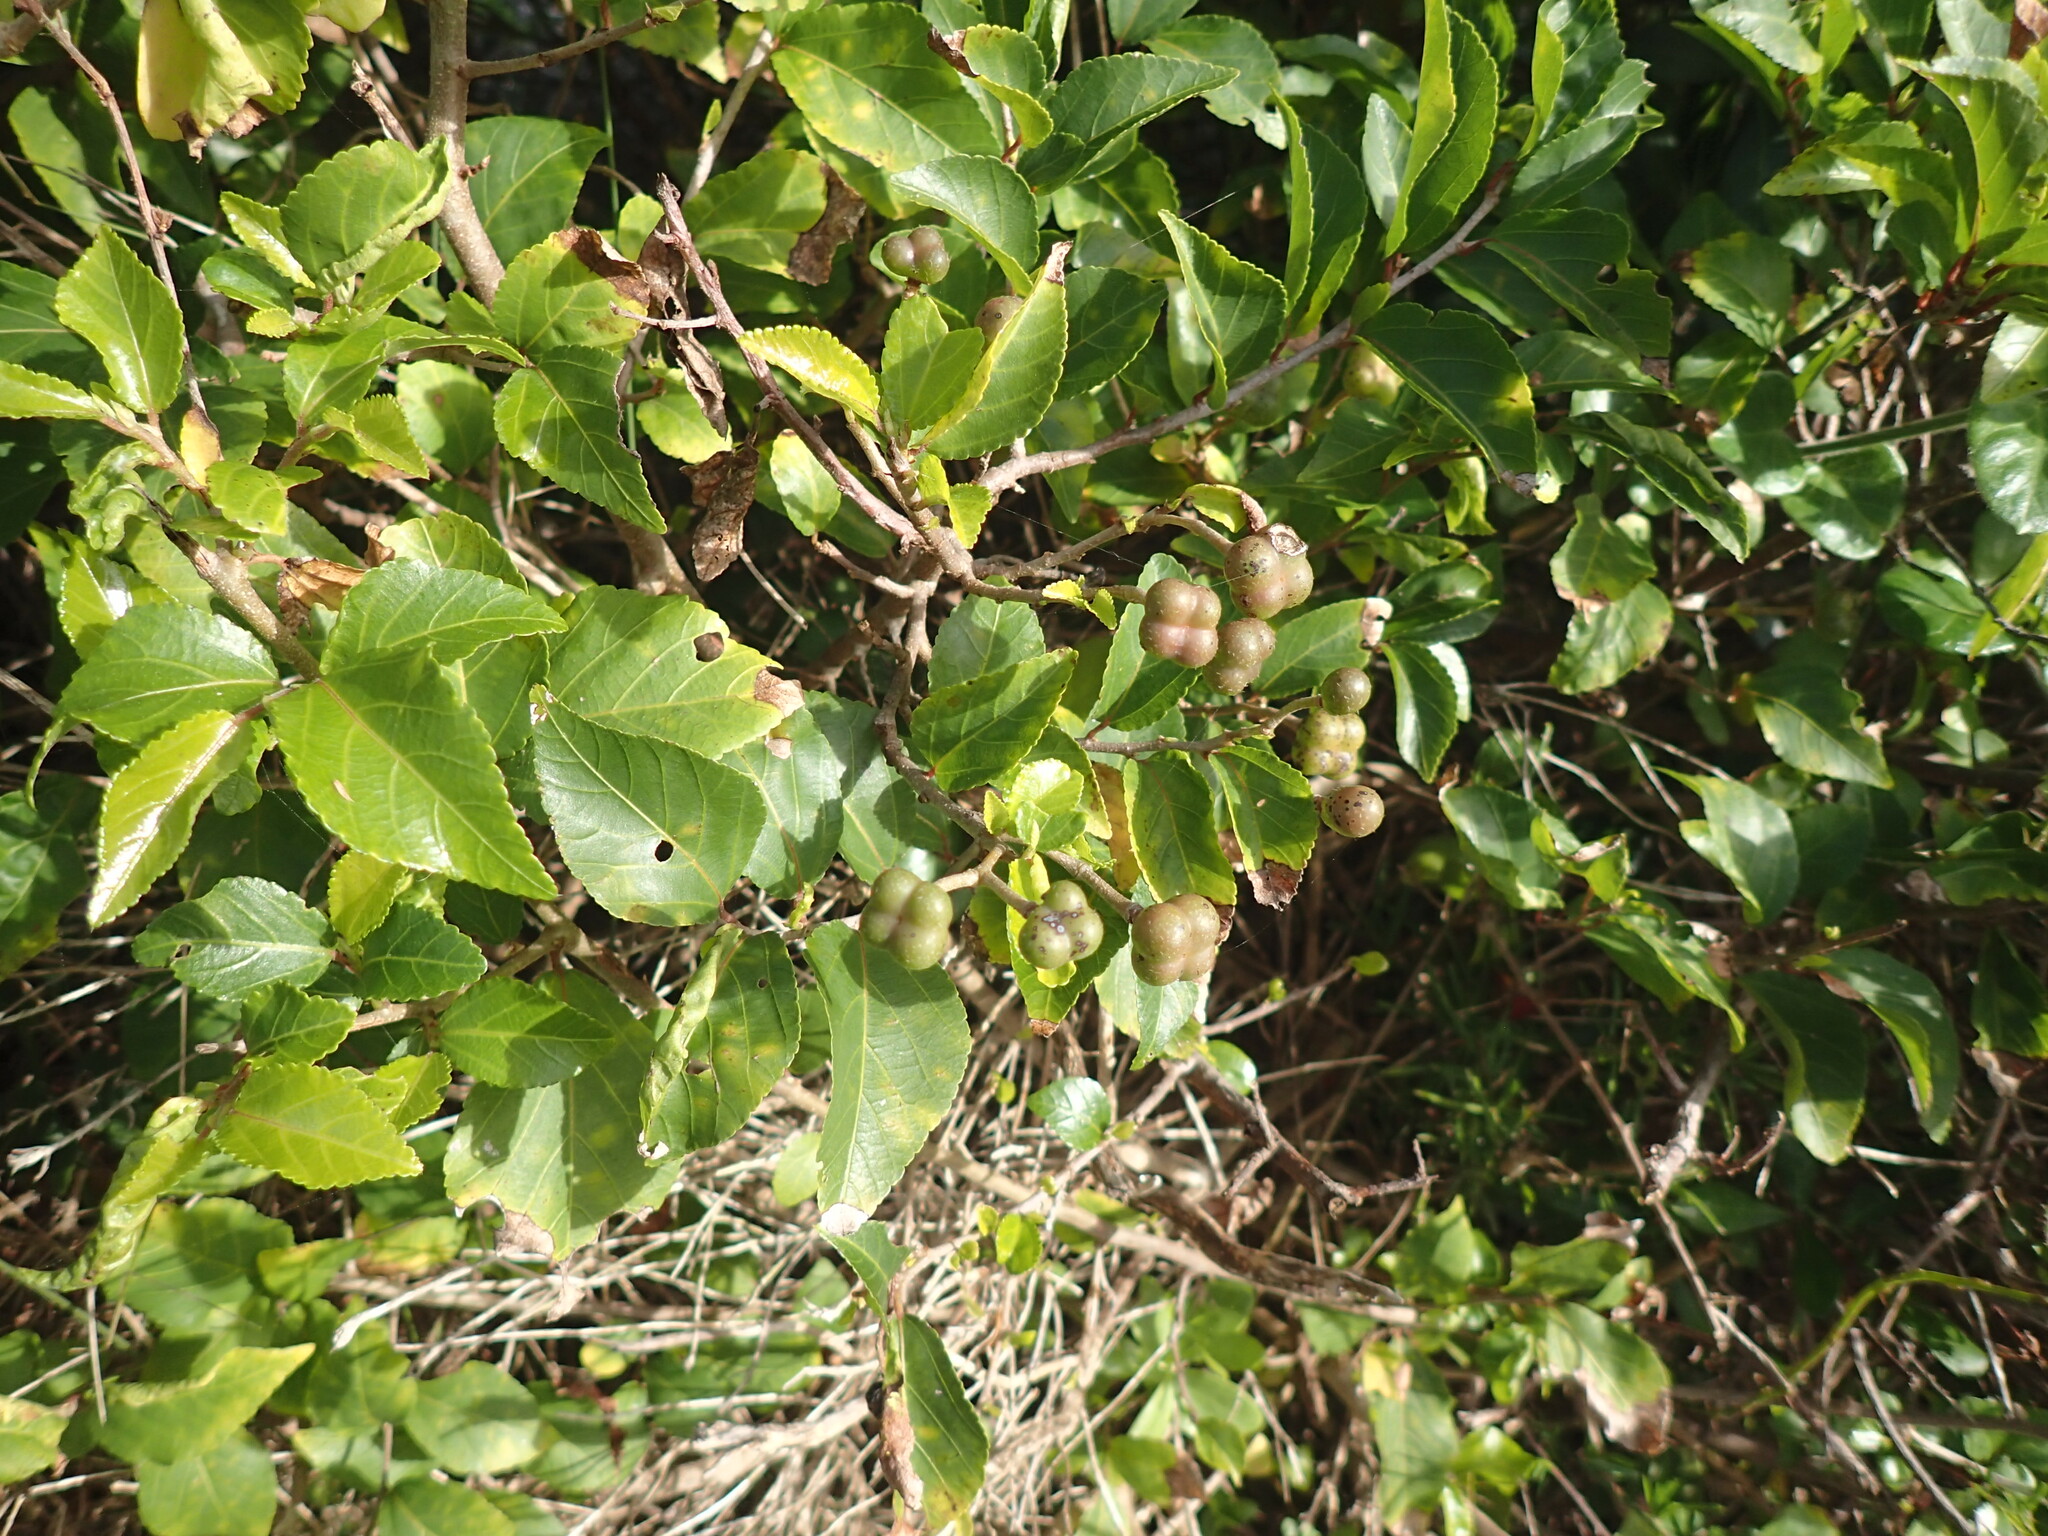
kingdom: Plantae
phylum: Tracheophyta
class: Magnoliopsida
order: Malvales
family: Malvaceae
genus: Grewia
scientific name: Grewia occidentalis
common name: Crossberry
